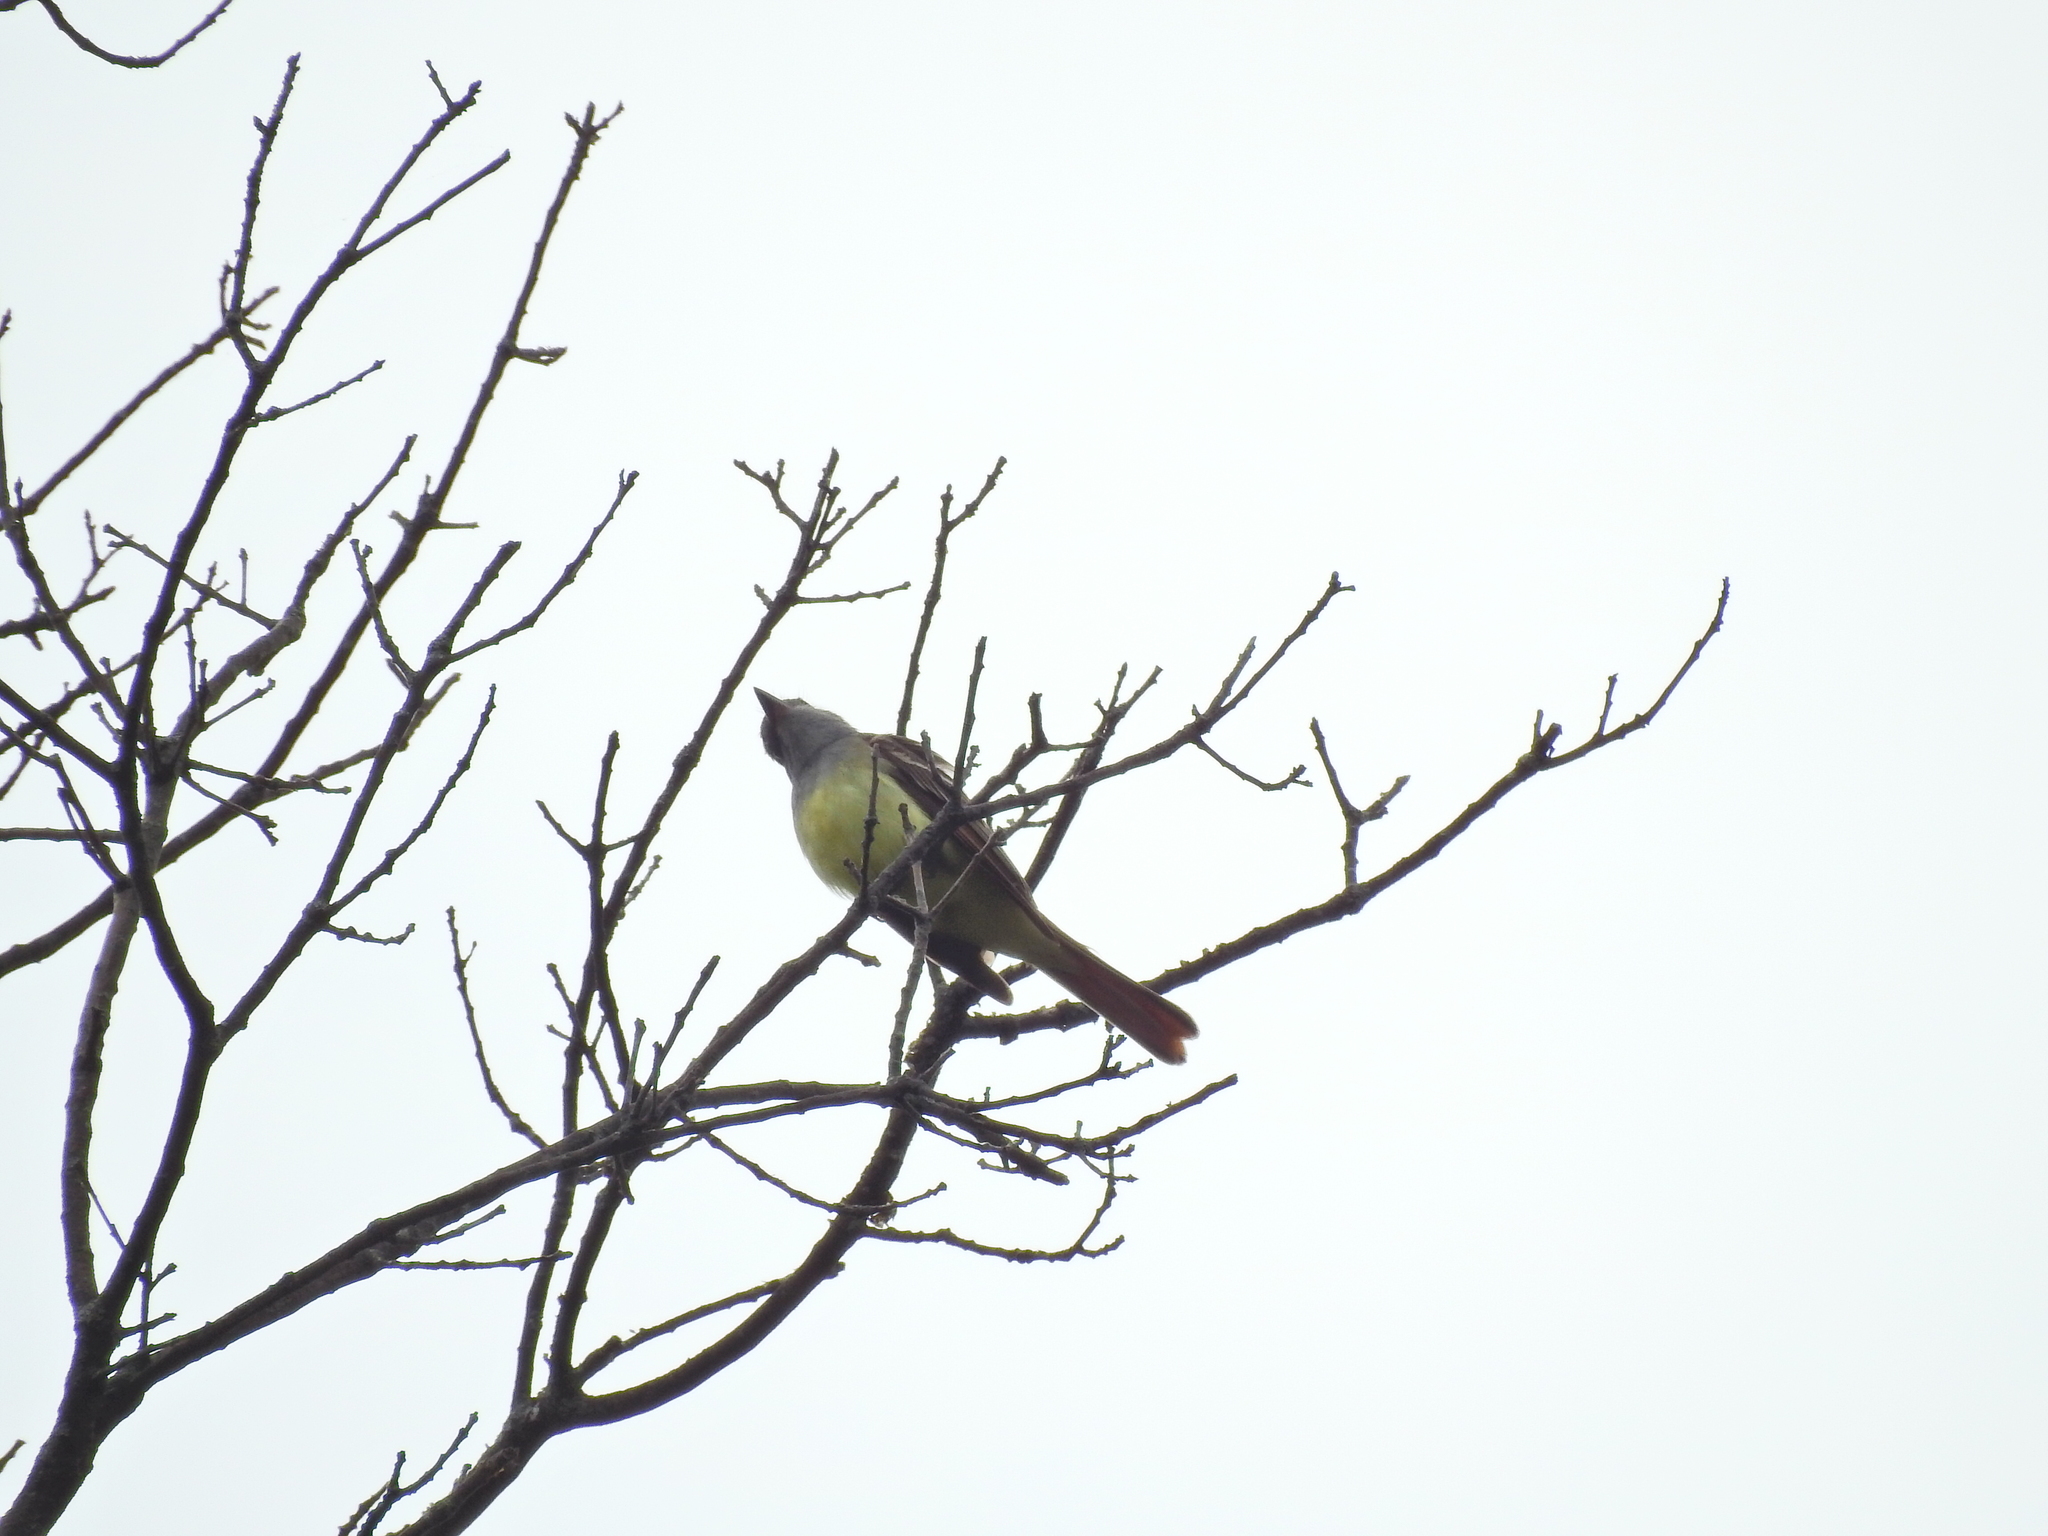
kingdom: Animalia
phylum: Chordata
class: Aves
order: Passeriformes
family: Tyrannidae
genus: Myiarchus
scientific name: Myiarchus crinitus
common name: Great crested flycatcher
